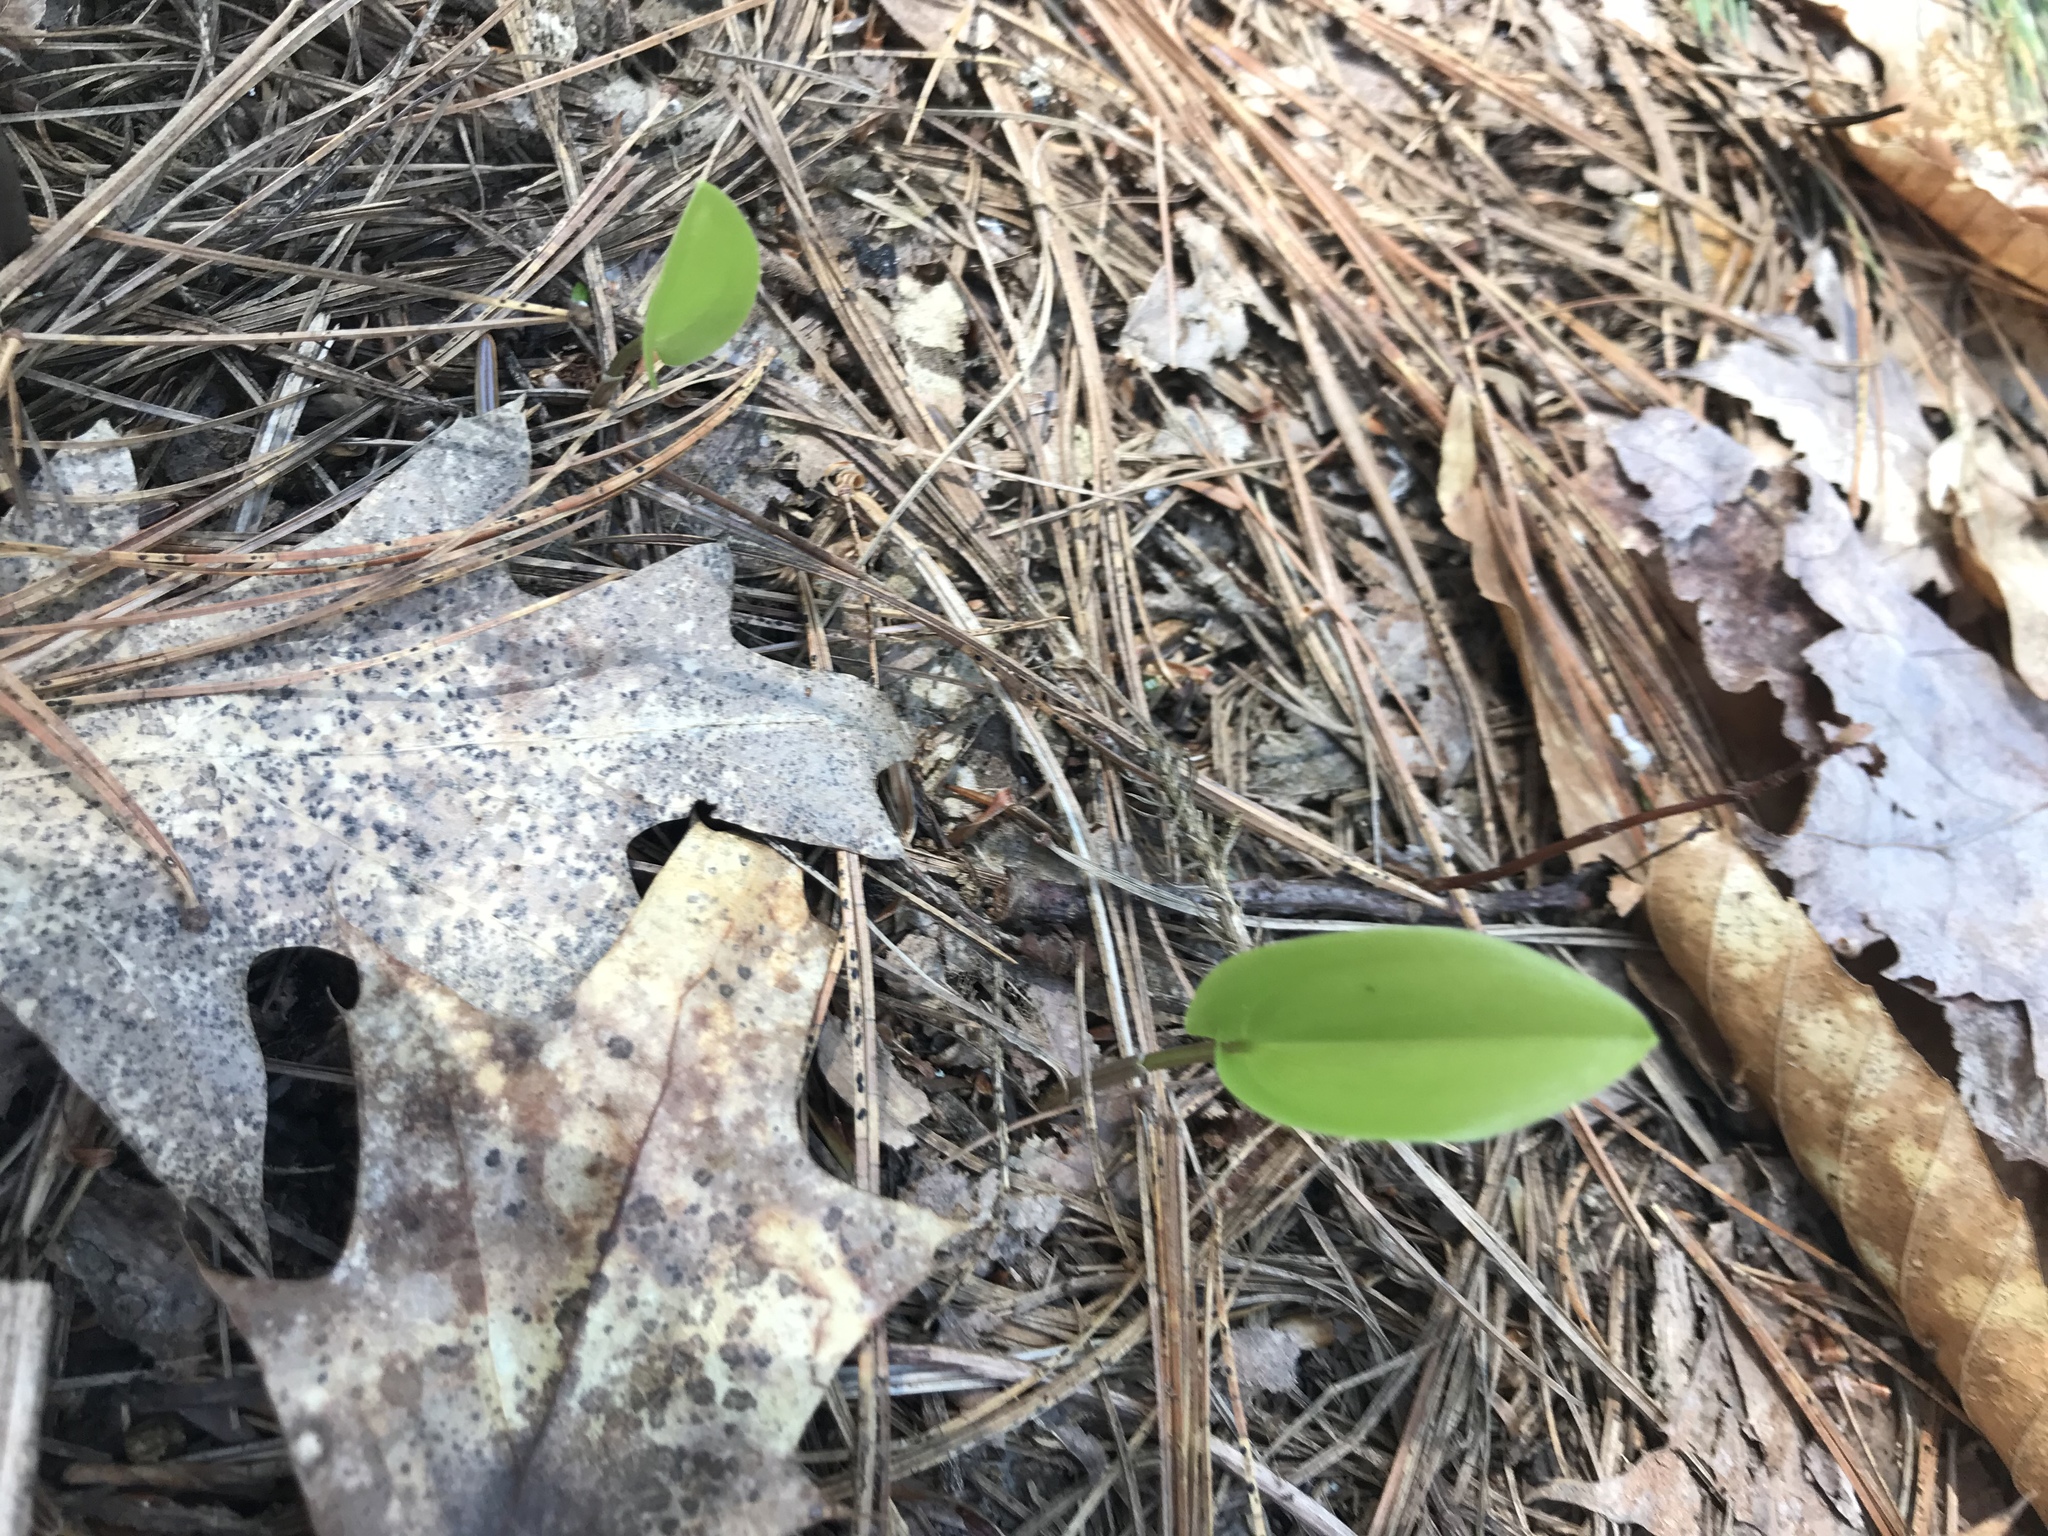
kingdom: Plantae
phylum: Tracheophyta
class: Liliopsida
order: Asparagales
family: Asparagaceae
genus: Maianthemum
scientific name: Maianthemum canadense
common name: False lily-of-the-valley
